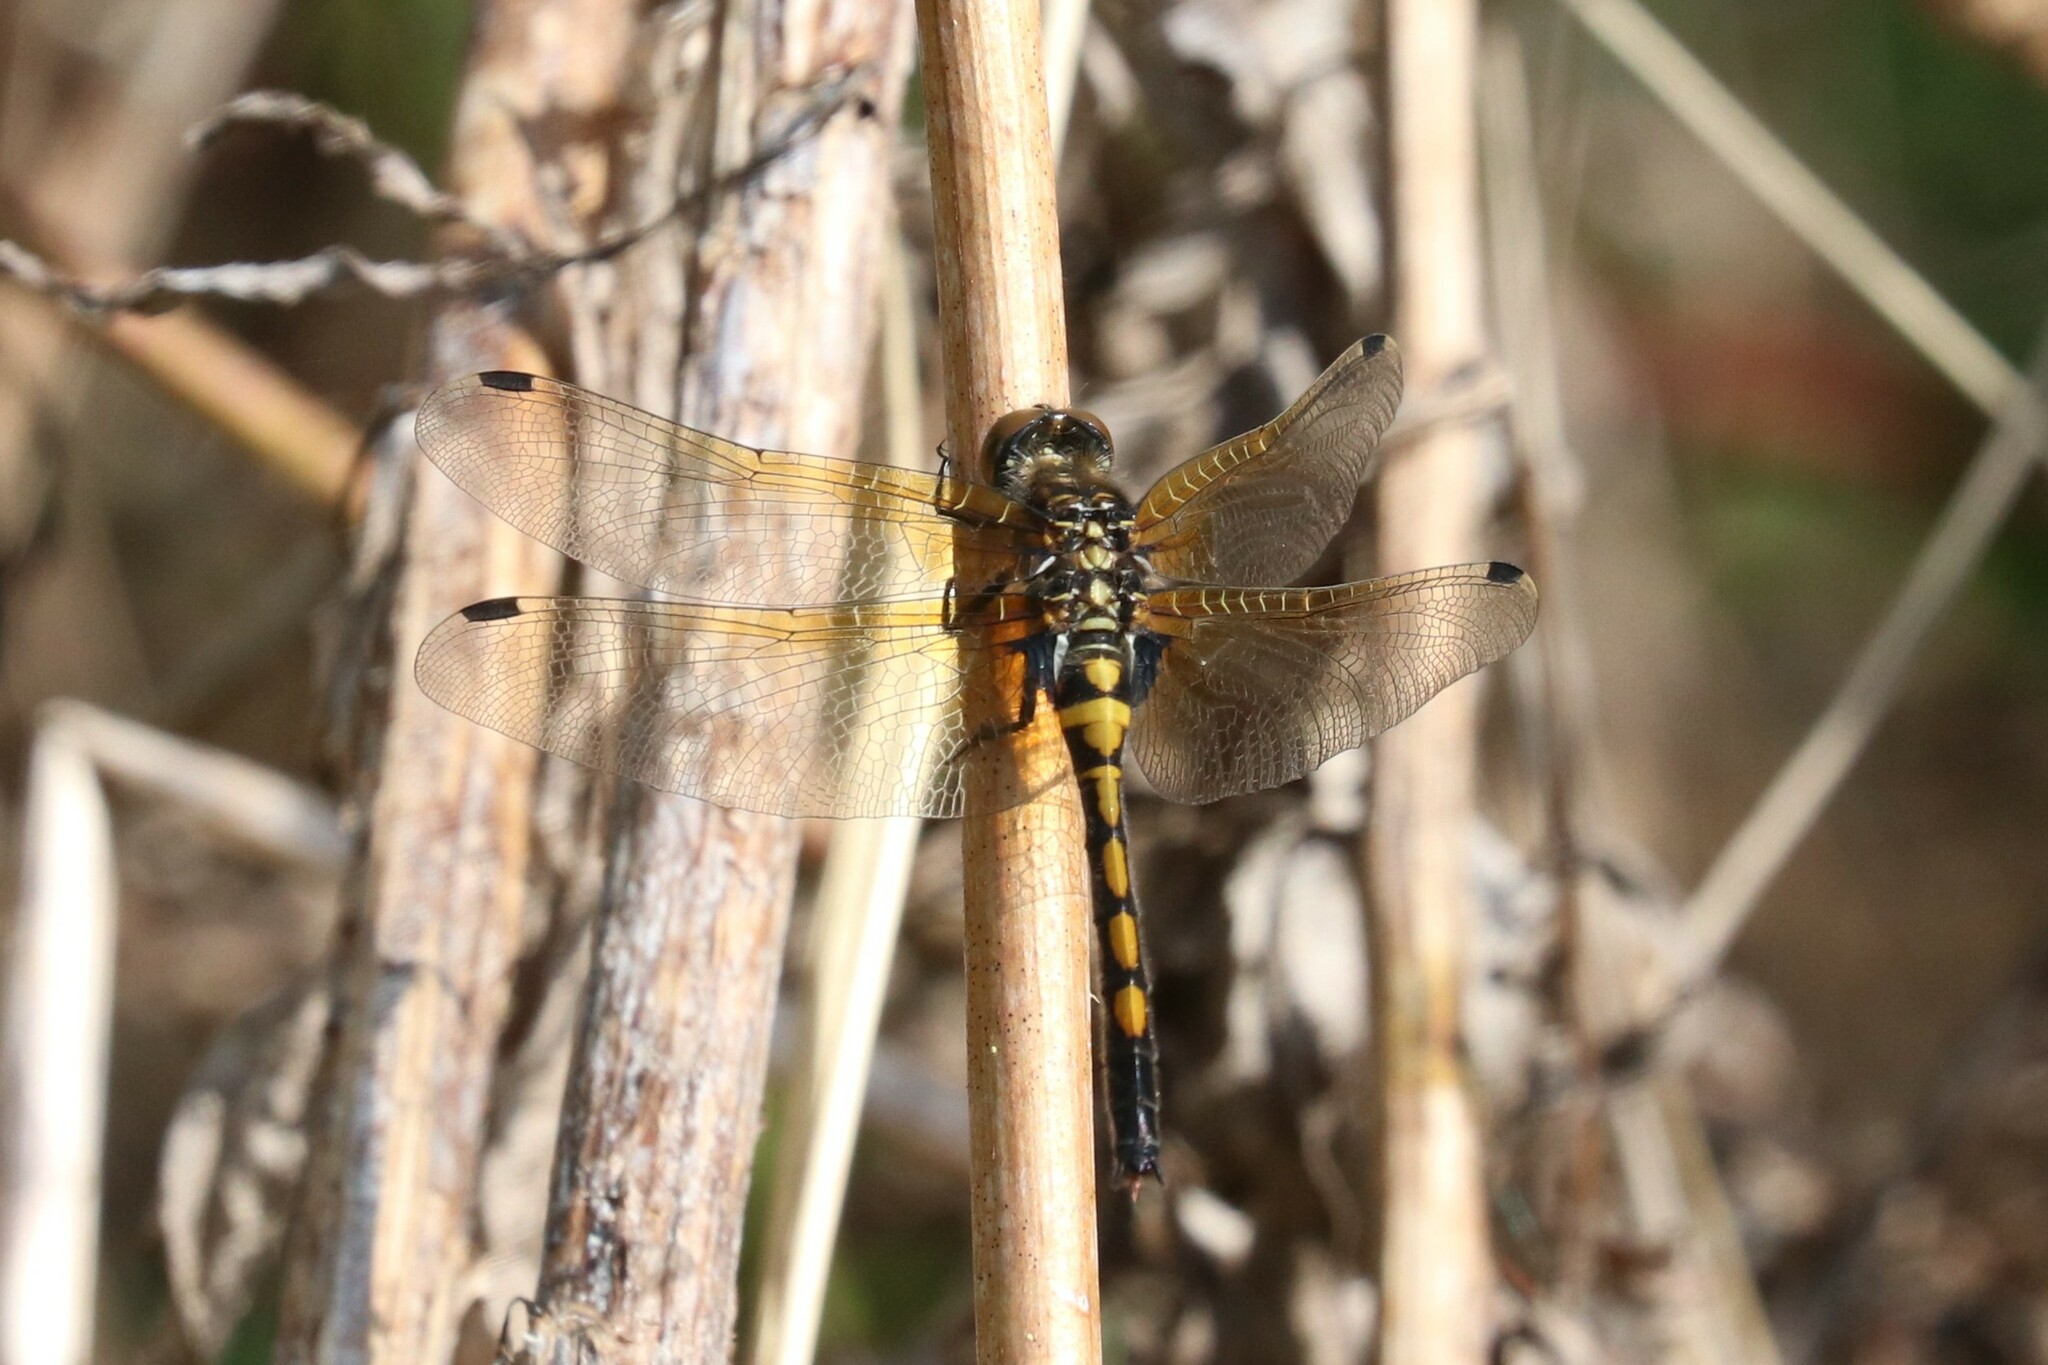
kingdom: Animalia
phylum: Arthropoda
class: Insecta
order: Odonata
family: Libellulidae
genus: Leucorrhinia
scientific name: Leucorrhinia rubicunda
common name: Ruby whiteface
